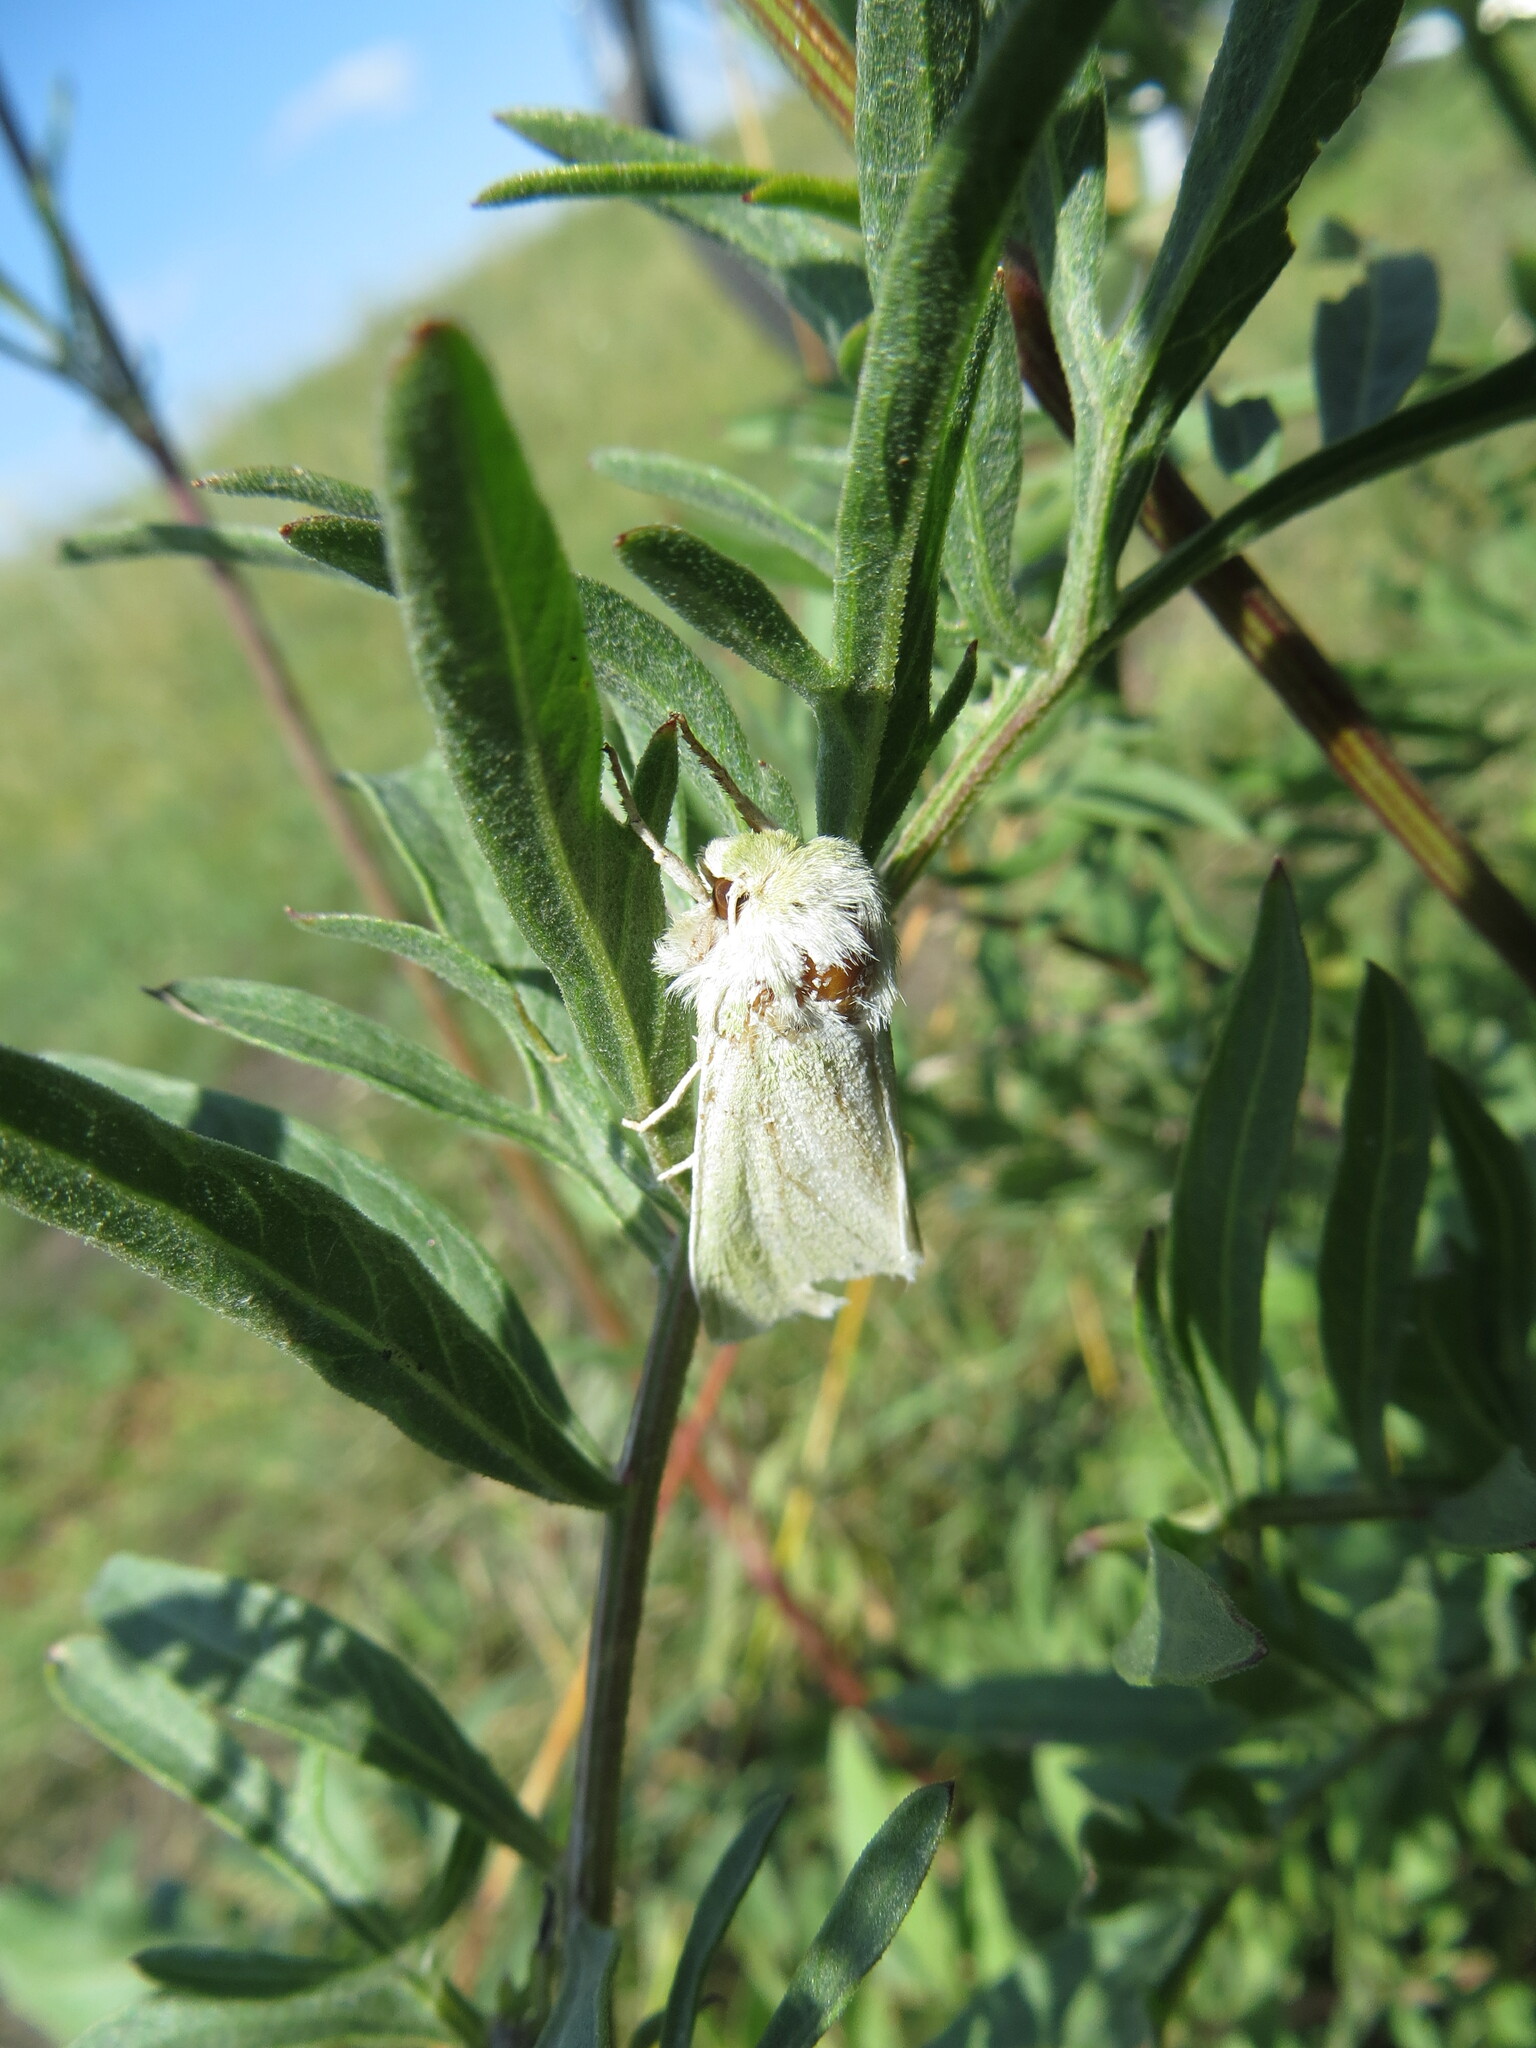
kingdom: Animalia
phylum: Arthropoda
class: Insecta
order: Lepidoptera
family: Noctuidae
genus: Calamia
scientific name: Calamia tridens
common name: Burren green
